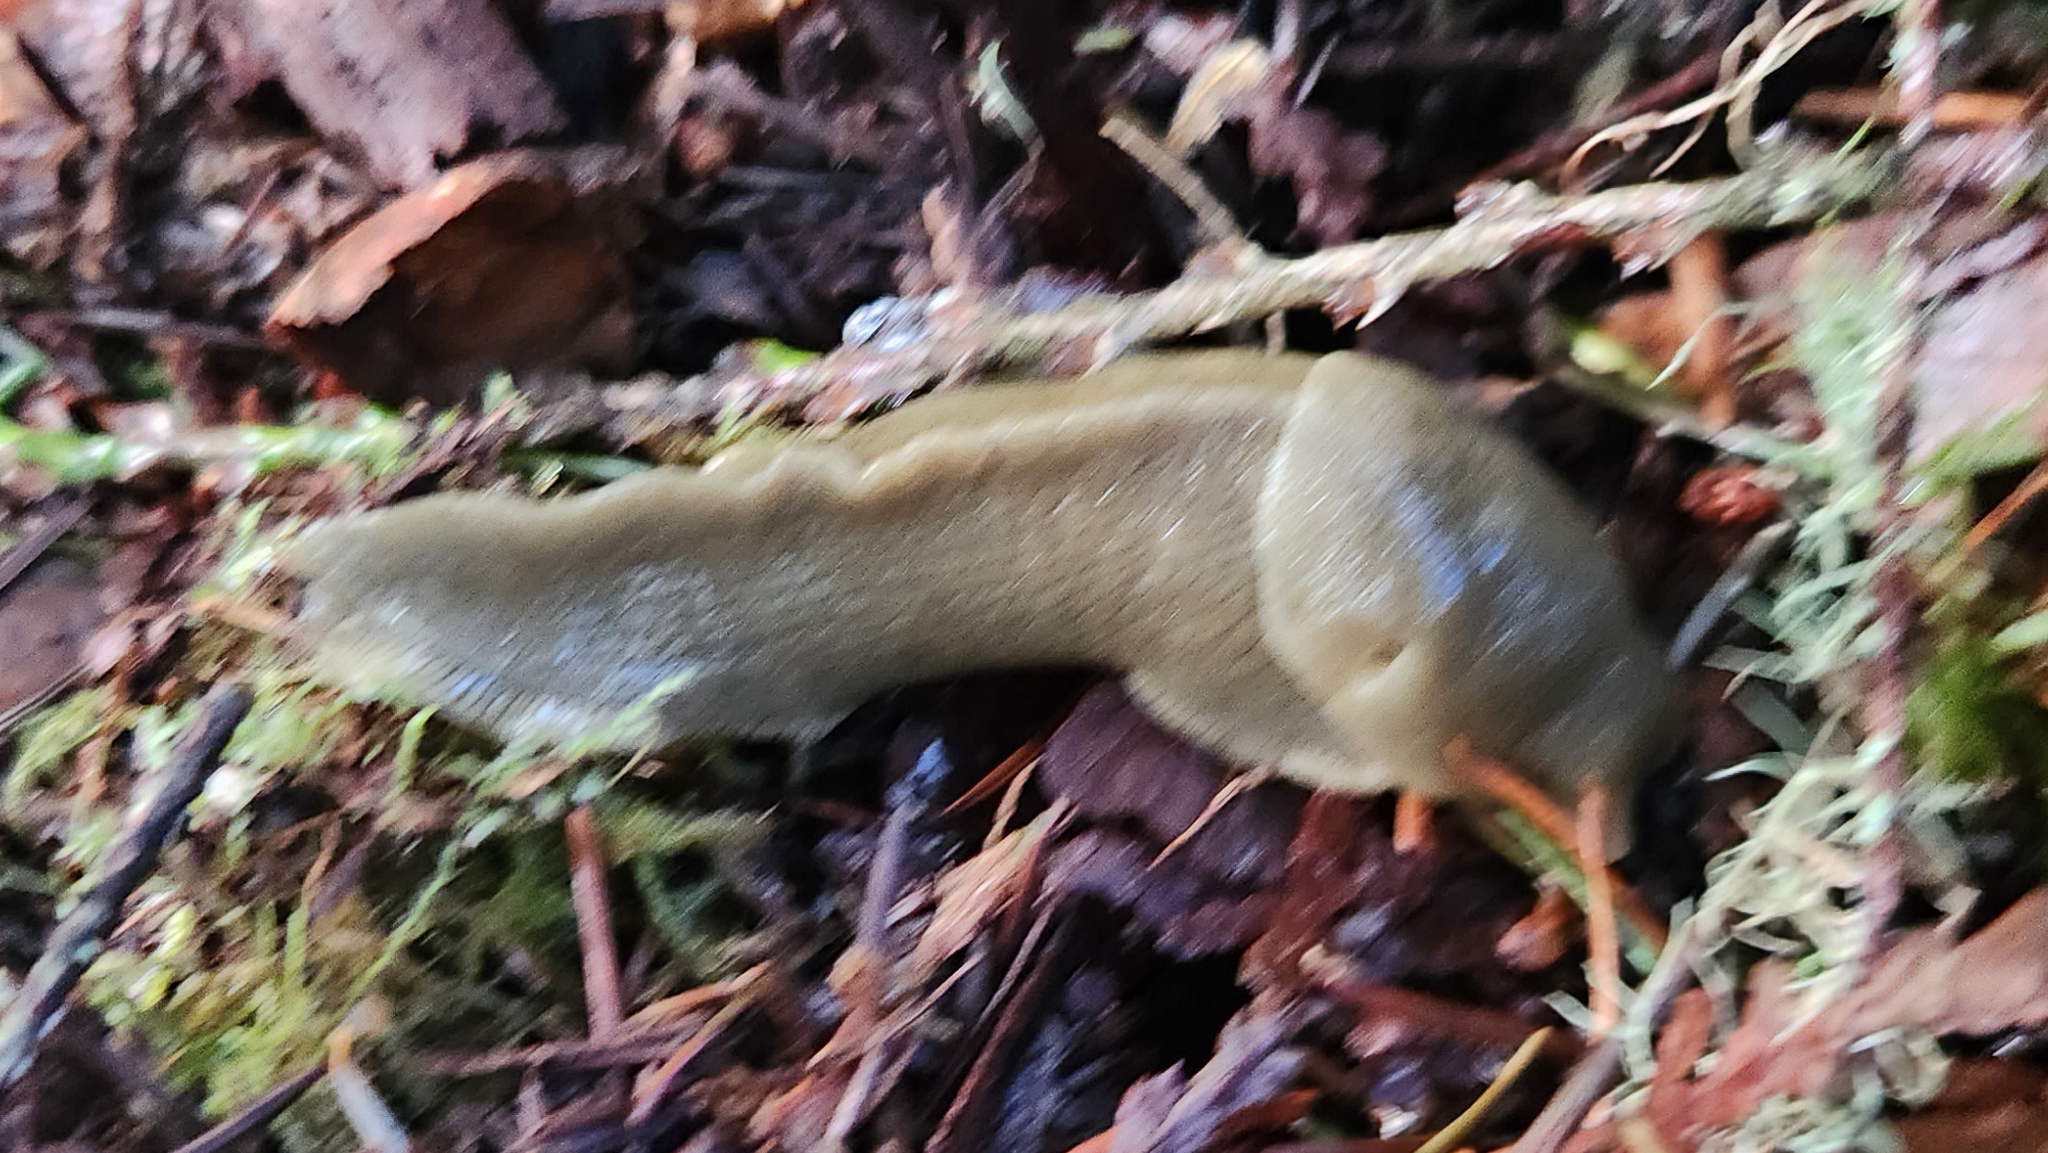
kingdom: Animalia
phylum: Mollusca
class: Gastropoda
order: Stylommatophora
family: Ariolimacidae
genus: Ariolimax
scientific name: Ariolimax columbianus
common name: Pacific banana slug
